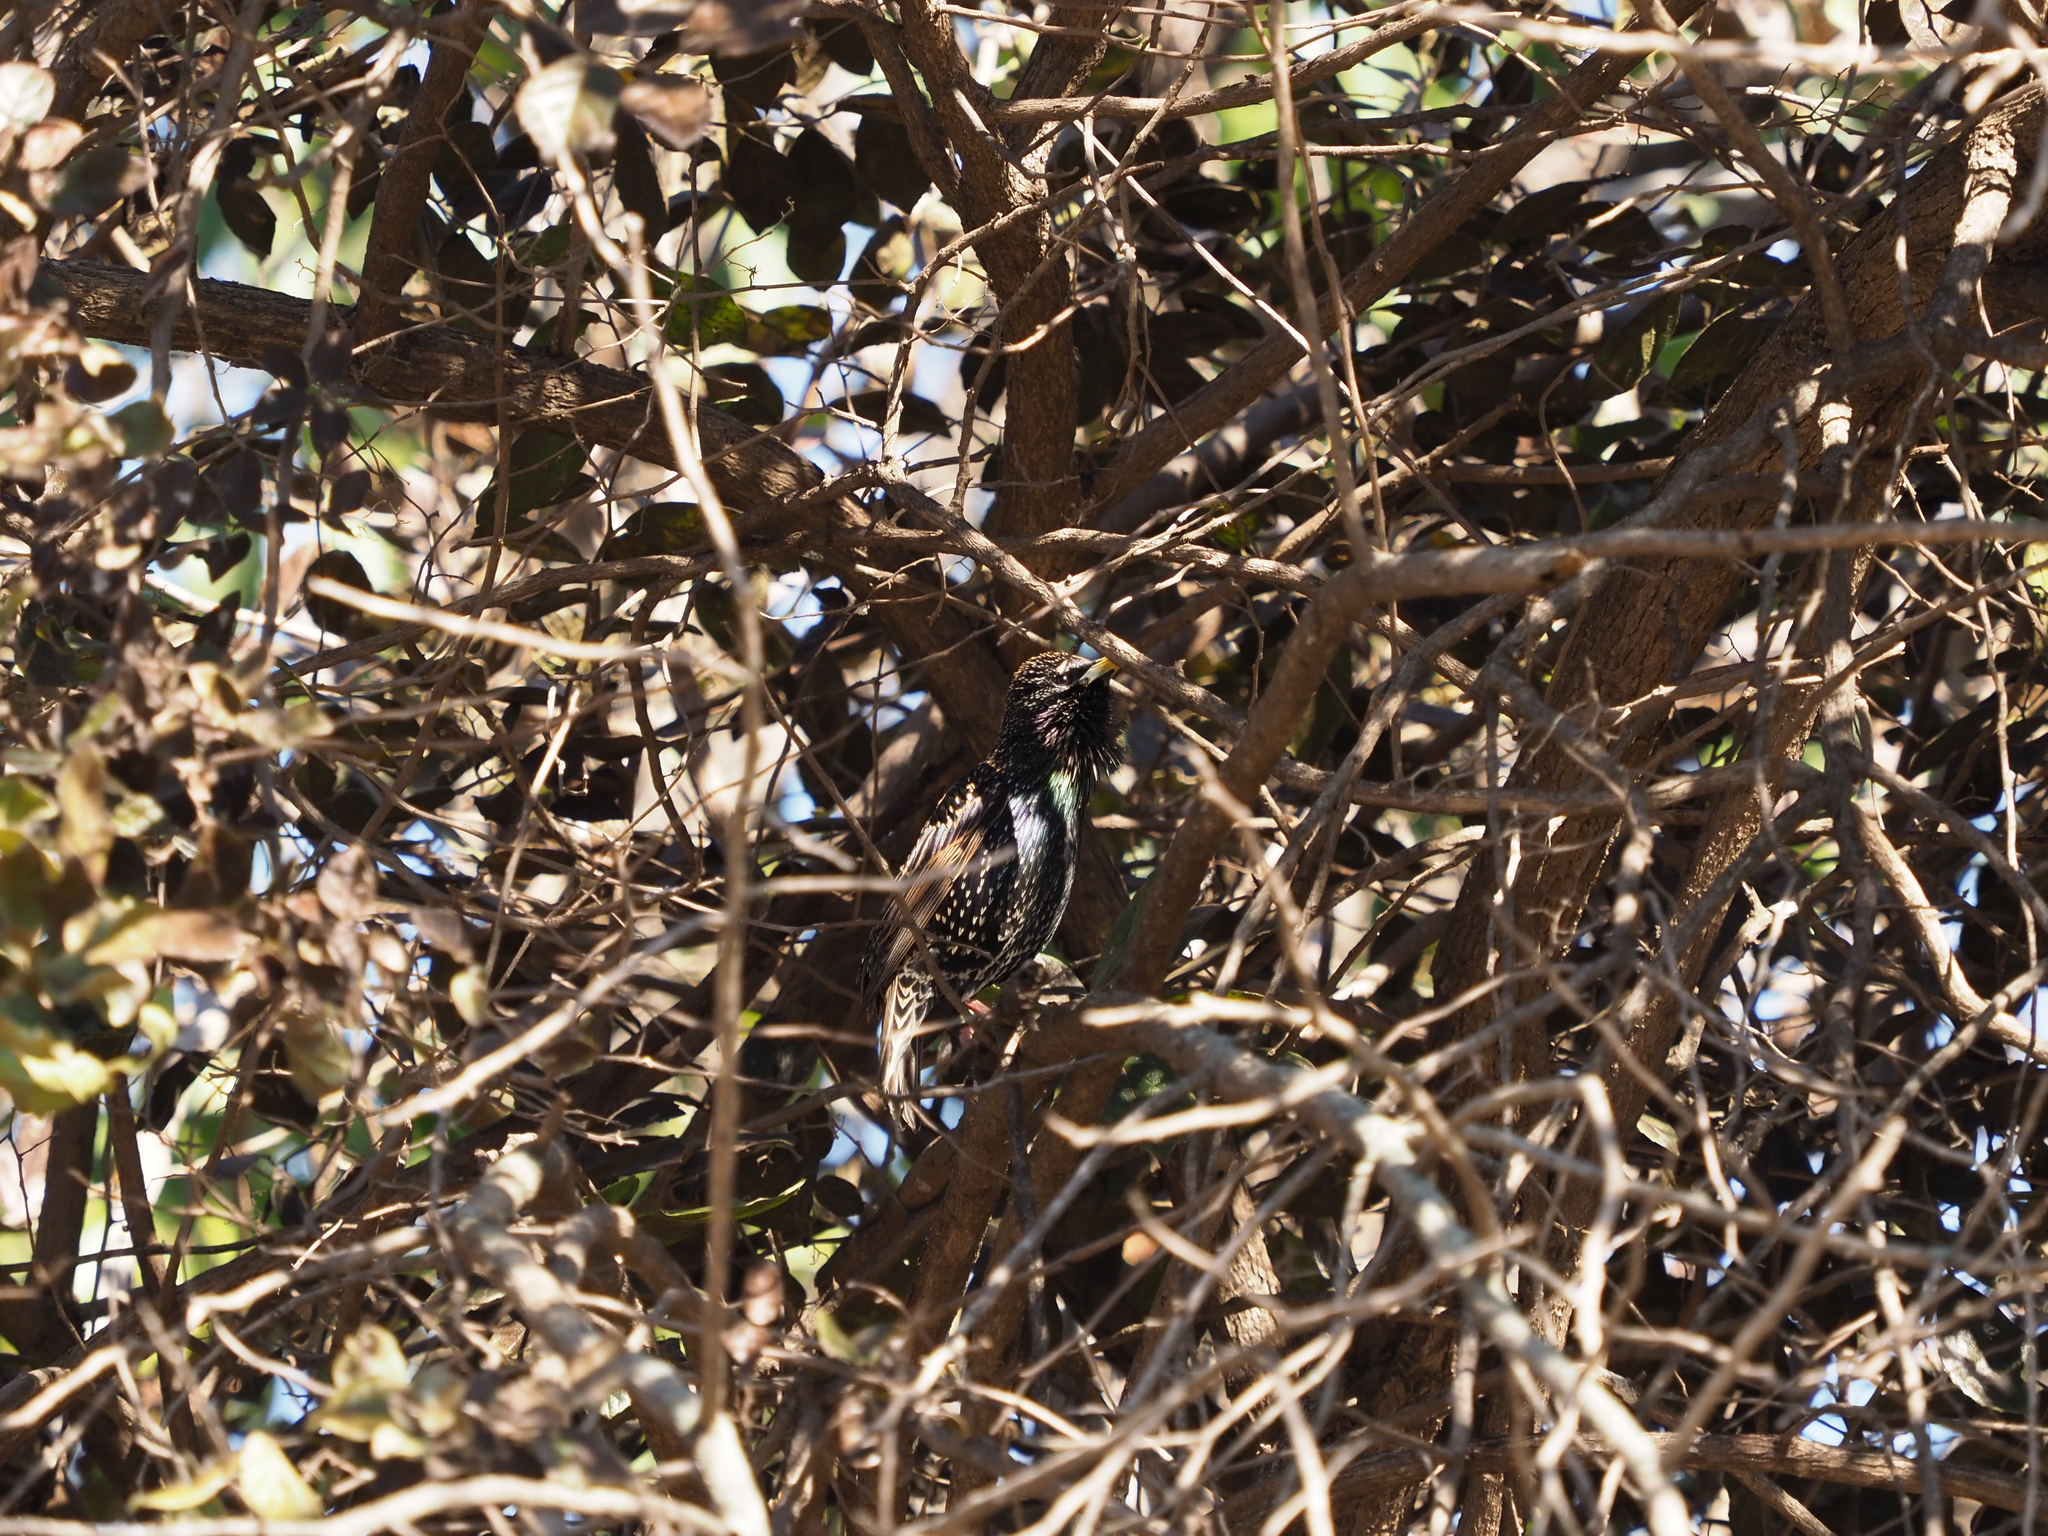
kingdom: Animalia
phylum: Chordata
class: Aves
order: Passeriformes
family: Sturnidae
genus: Sturnus
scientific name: Sturnus vulgaris
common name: Common starling
